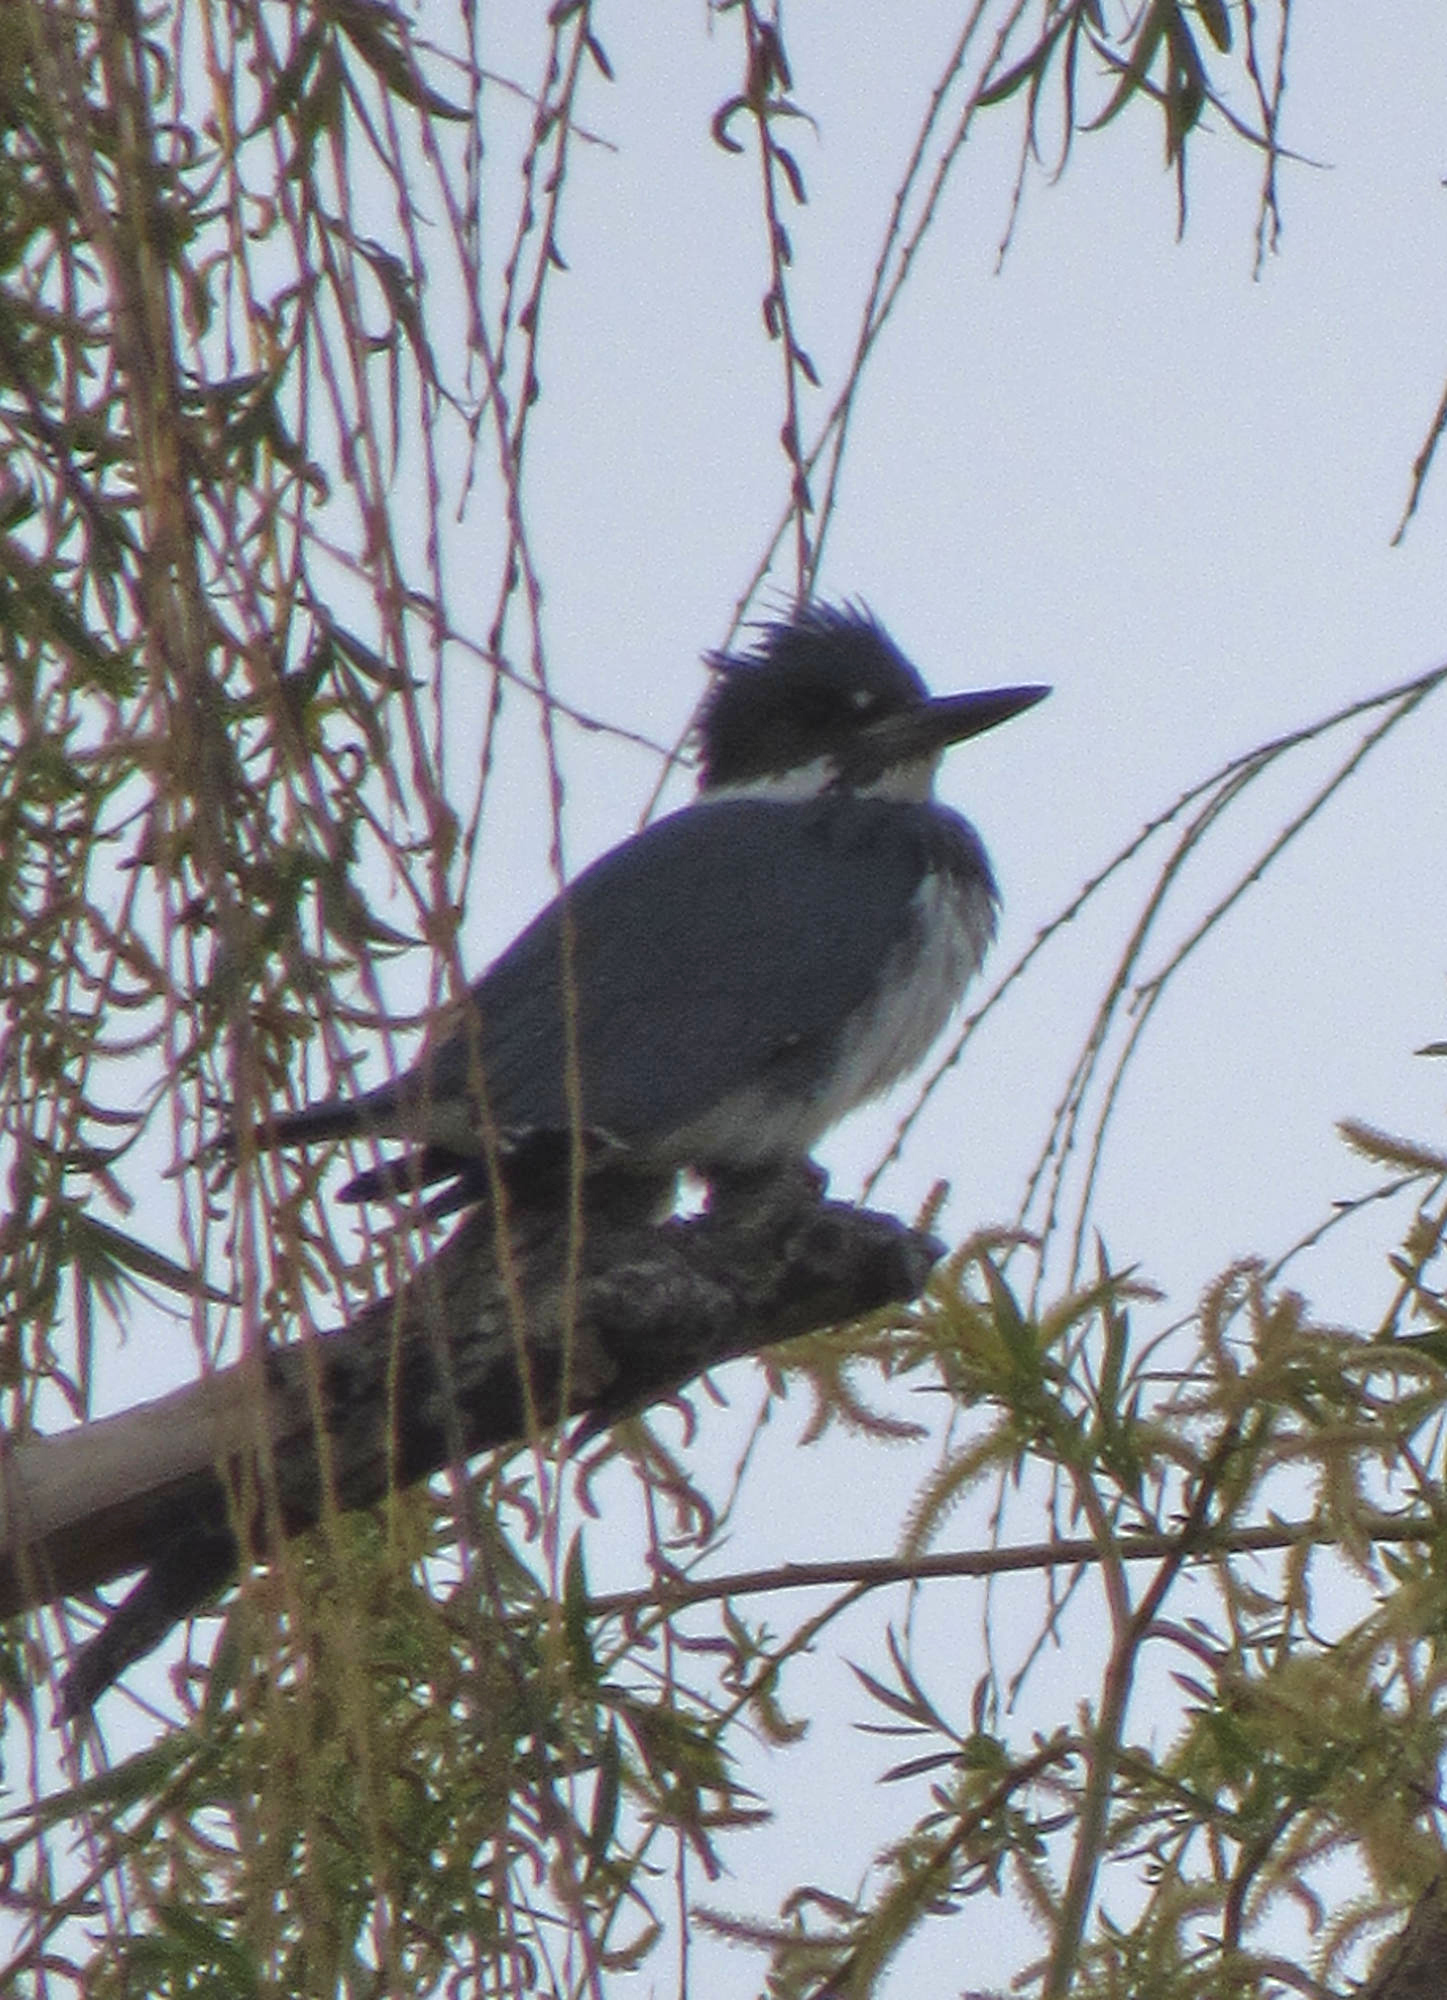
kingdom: Animalia
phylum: Chordata
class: Aves
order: Coraciiformes
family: Alcedinidae
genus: Megaceryle
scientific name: Megaceryle alcyon
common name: Belted kingfisher
